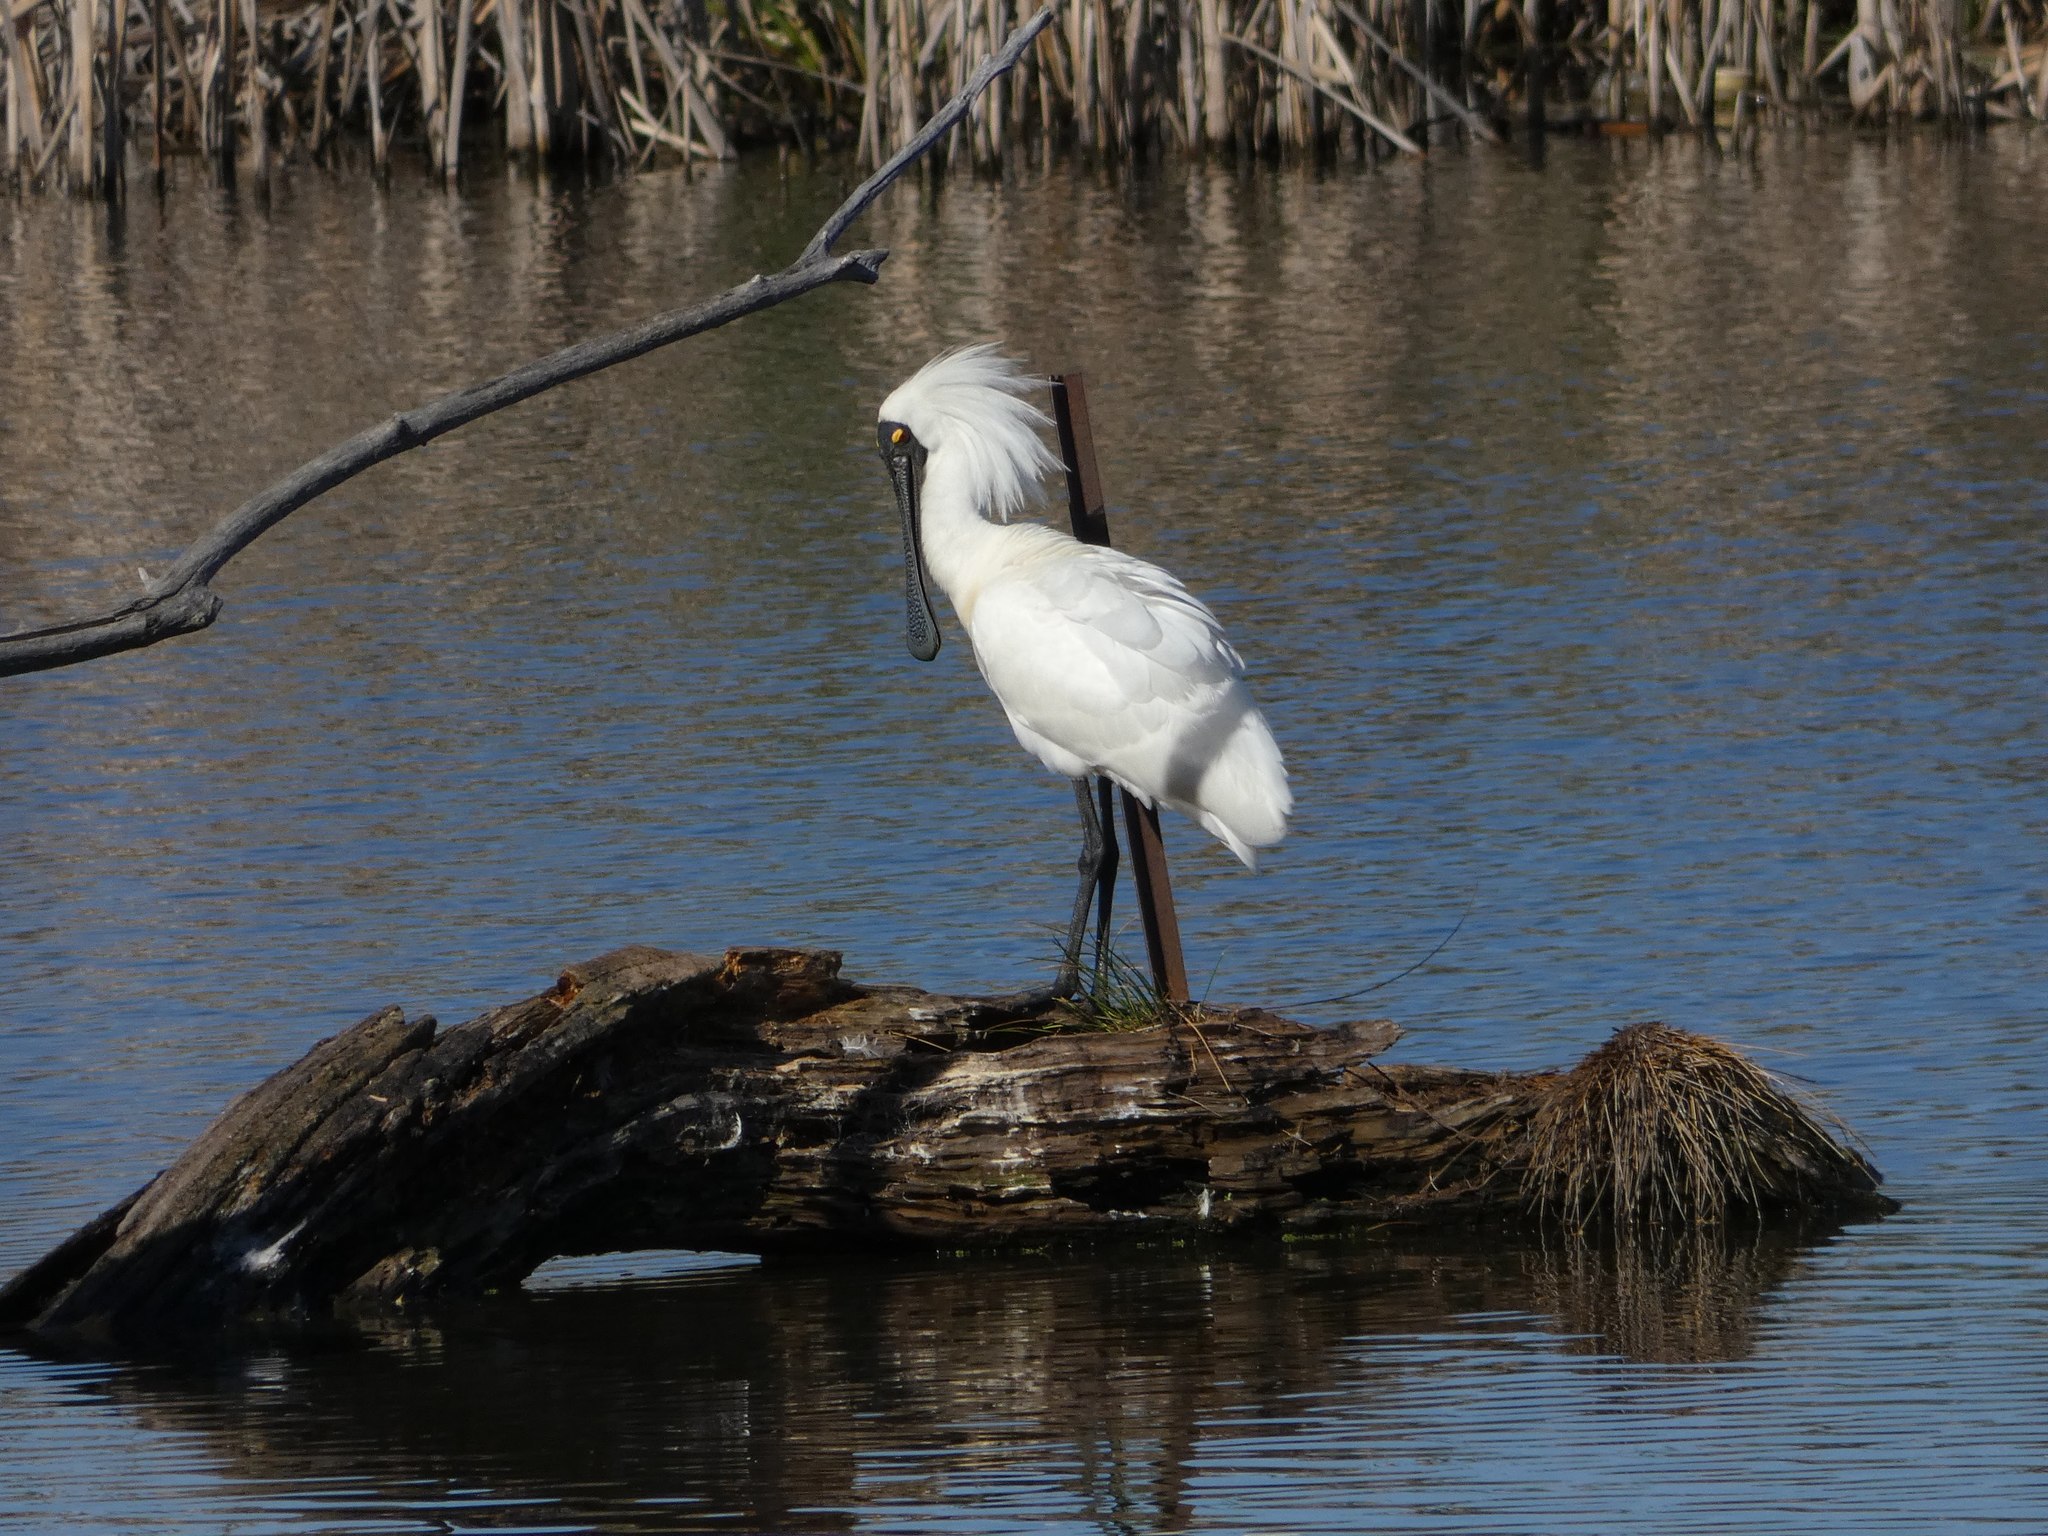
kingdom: Animalia
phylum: Chordata
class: Aves
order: Pelecaniformes
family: Threskiornithidae
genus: Platalea
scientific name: Platalea regia
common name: Royal spoonbill
